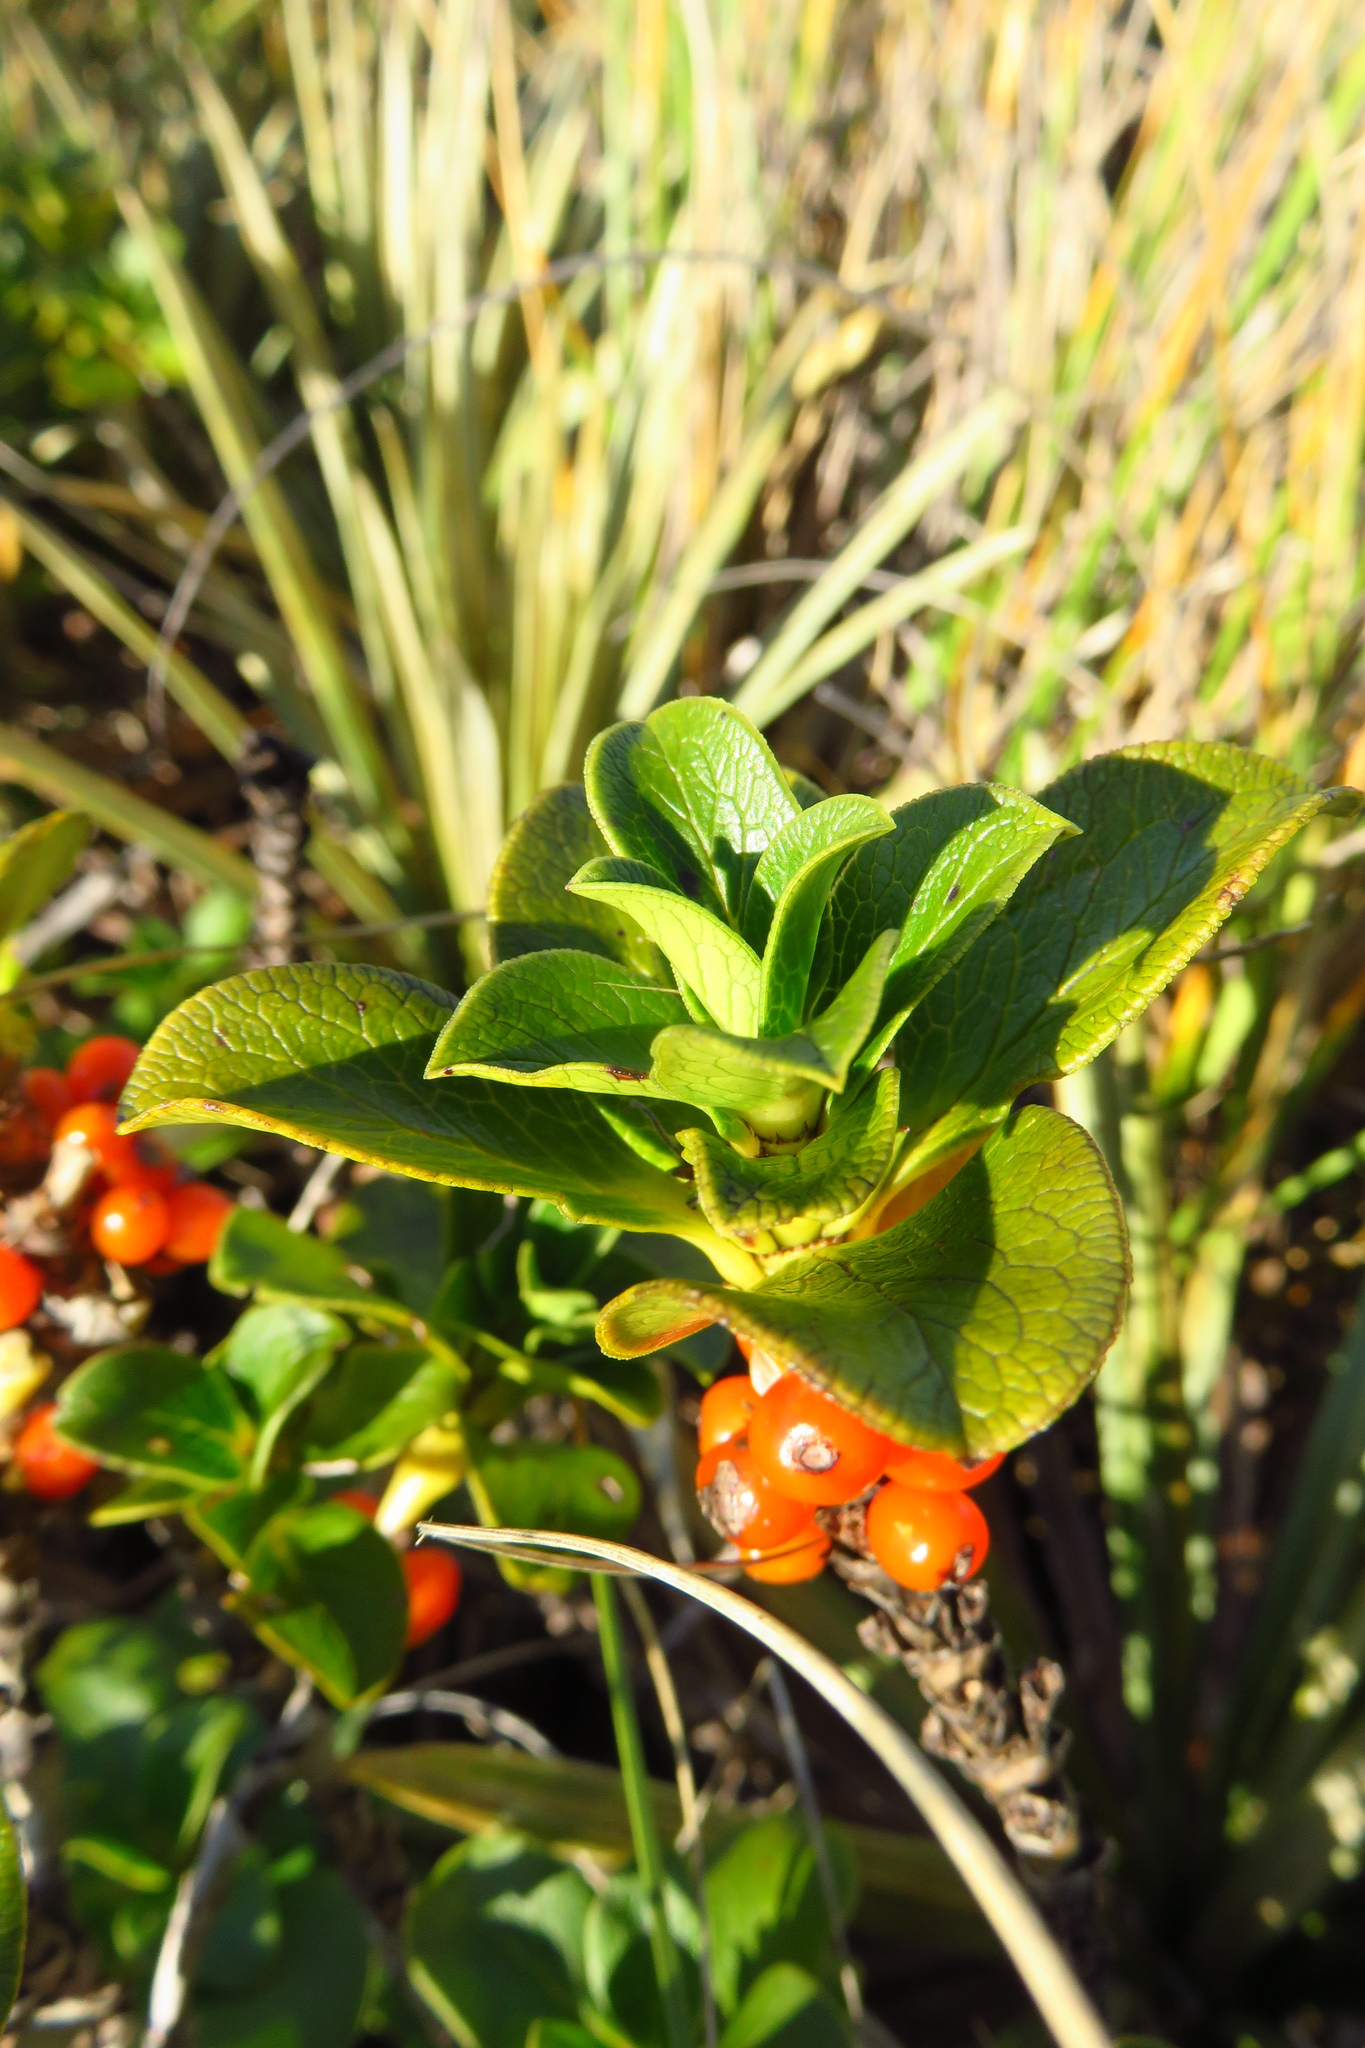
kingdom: Plantae
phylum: Tracheophyta
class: Magnoliopsida
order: Gentianales
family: Rubiaceae
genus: Coprosma
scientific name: Coprosma serrulata
